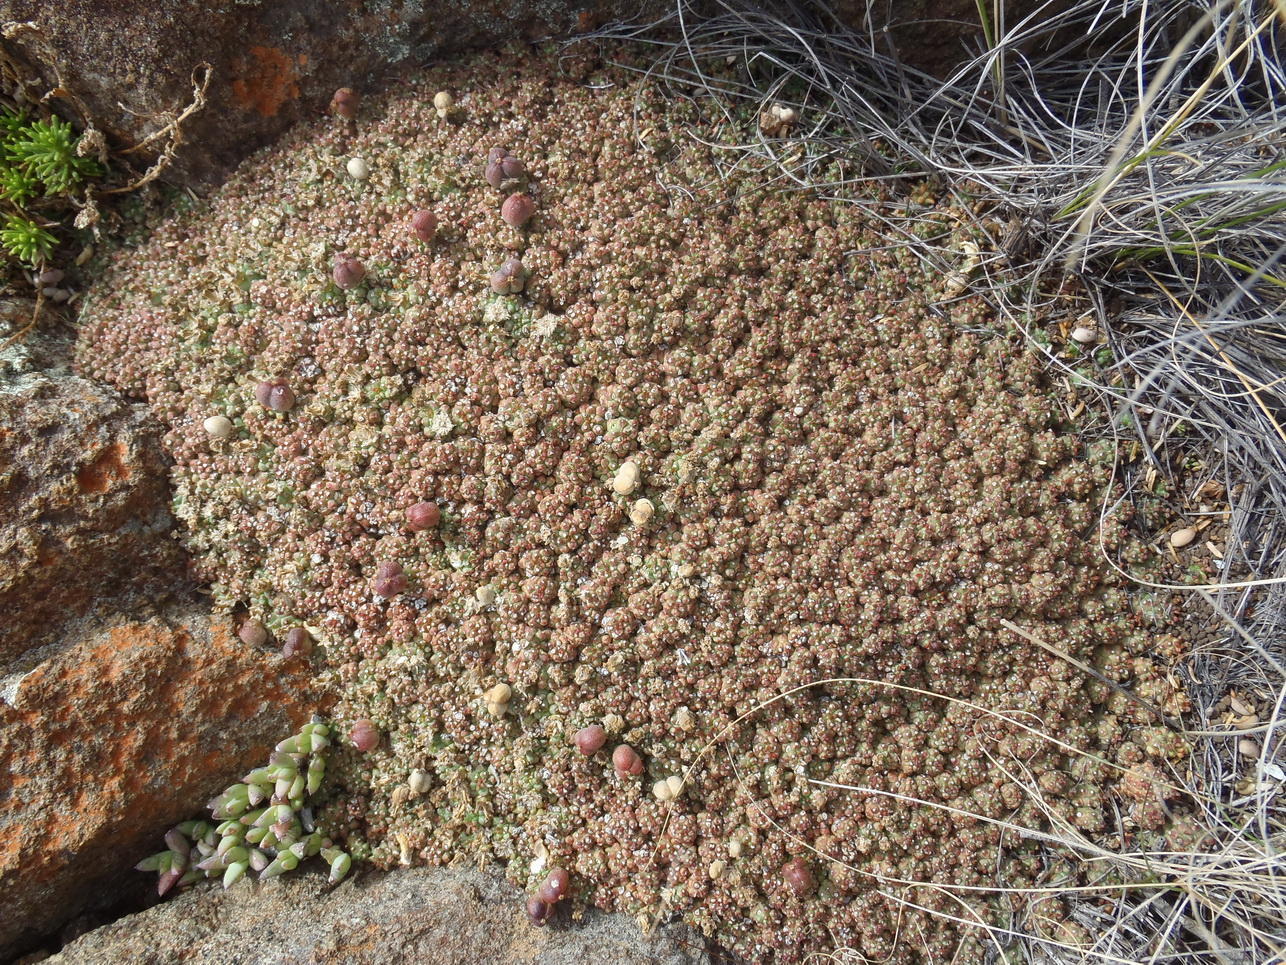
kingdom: Plantae
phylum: Tracheophyta
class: Magnoliopsida
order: Malpighiales
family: Euphorbiaceae
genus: Euphorbia
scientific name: Euphorbia clavarioides
